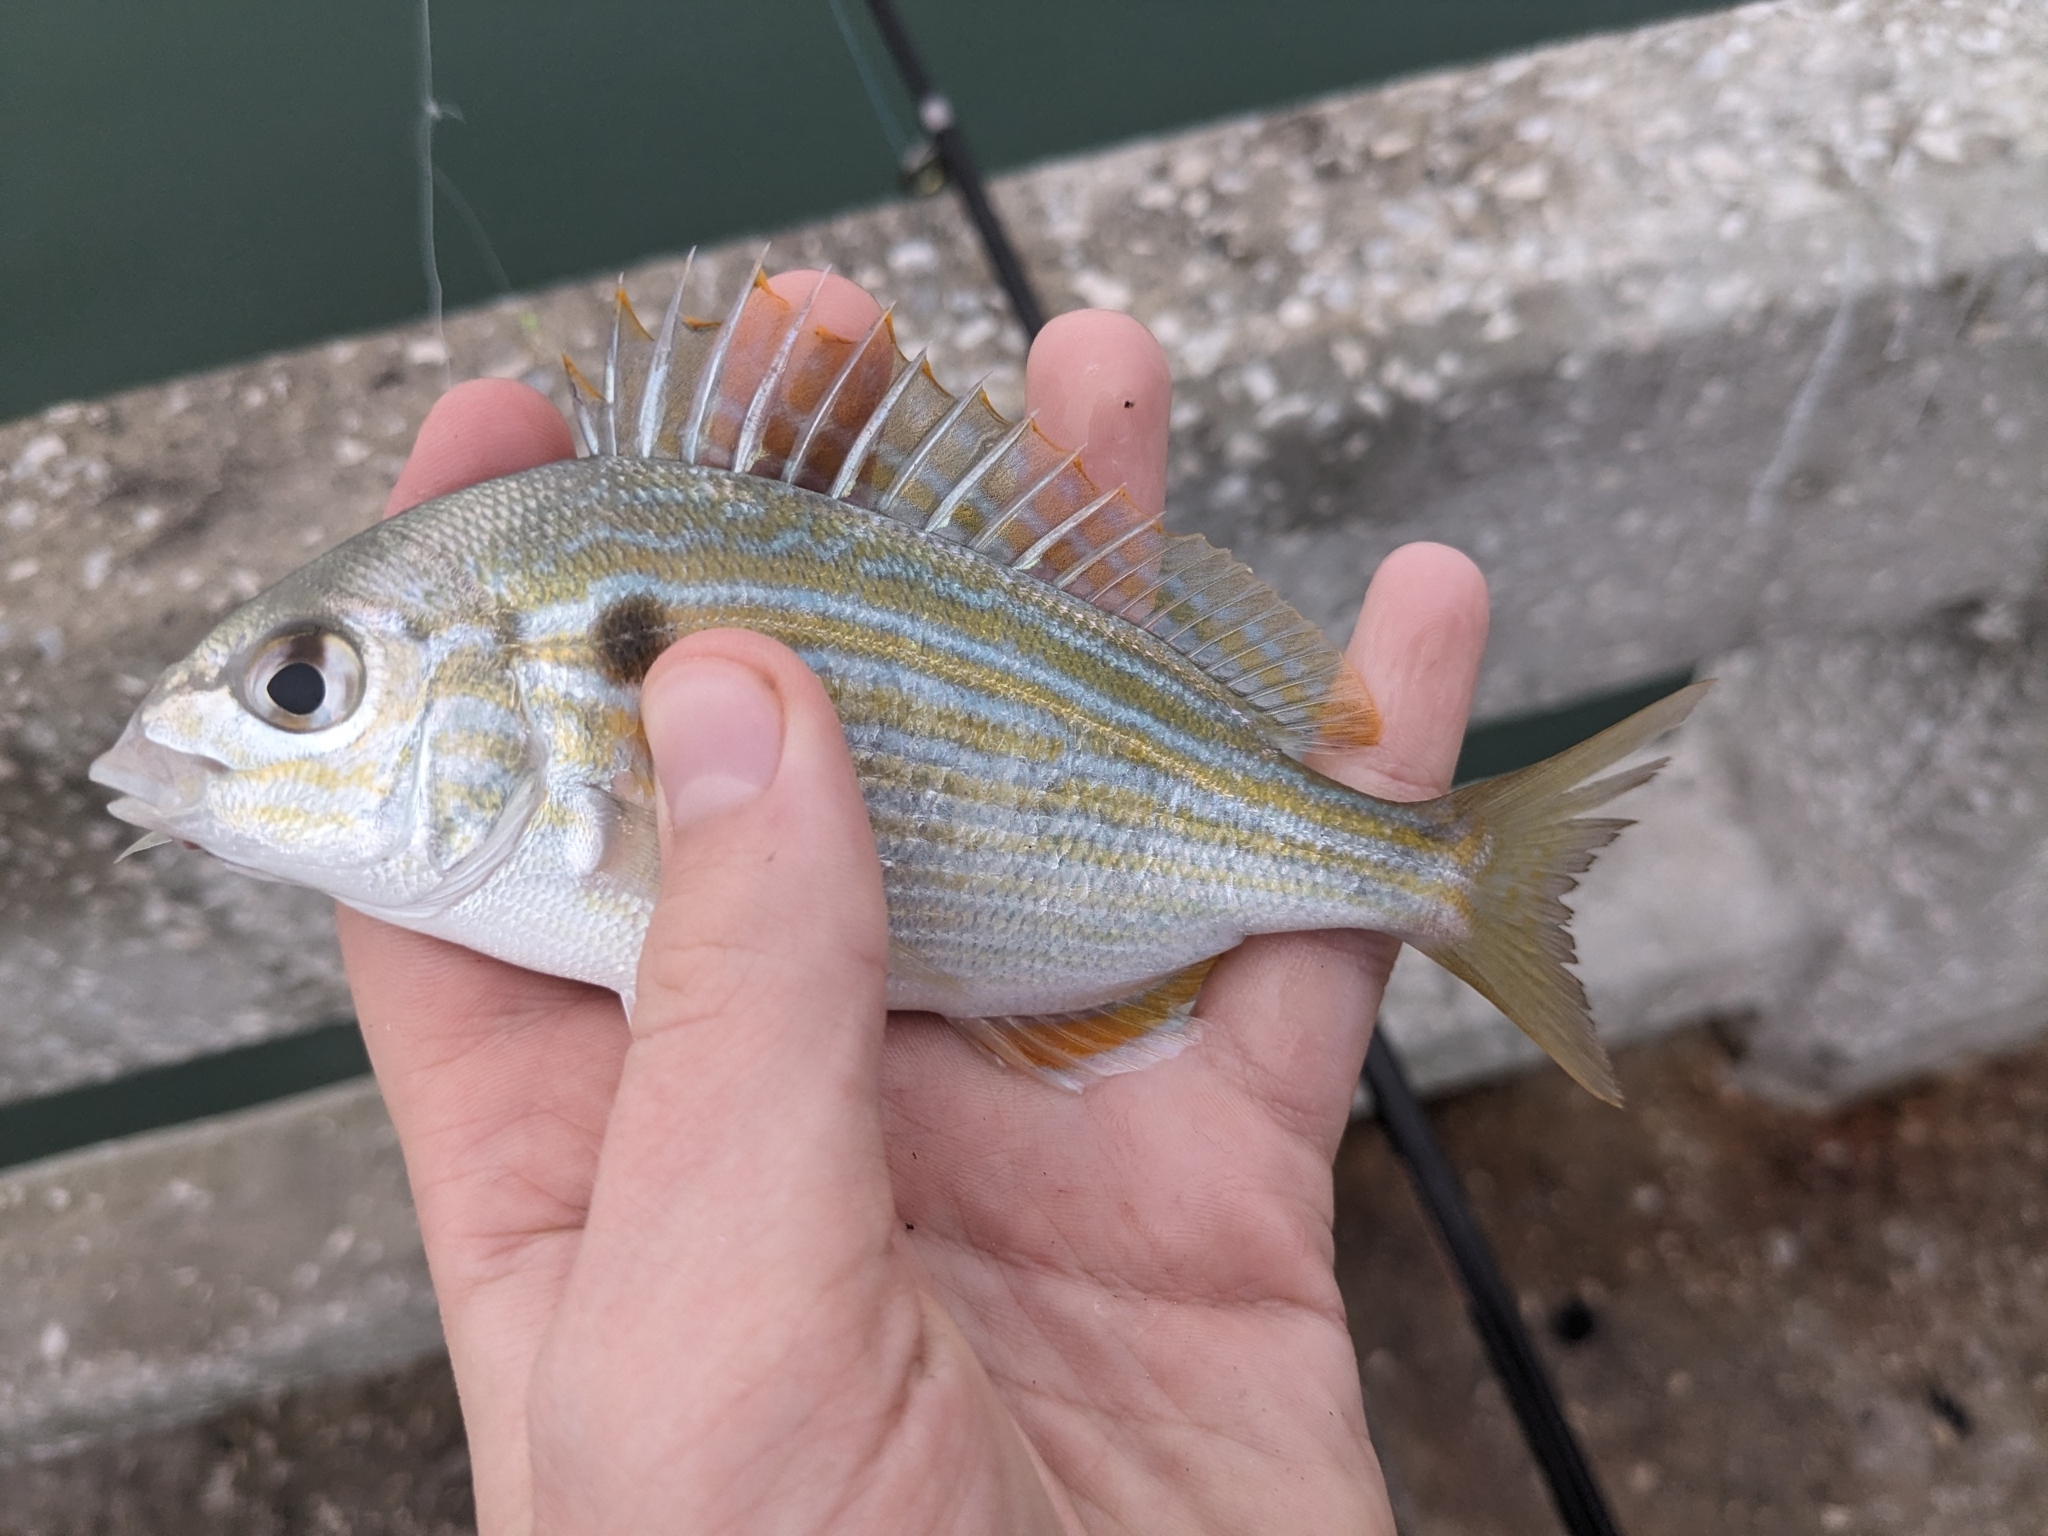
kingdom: Animalia
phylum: Chordata
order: Perciformes
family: Sparidae
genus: Lagodon
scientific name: Lagodon rhomboides
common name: Pinfish
